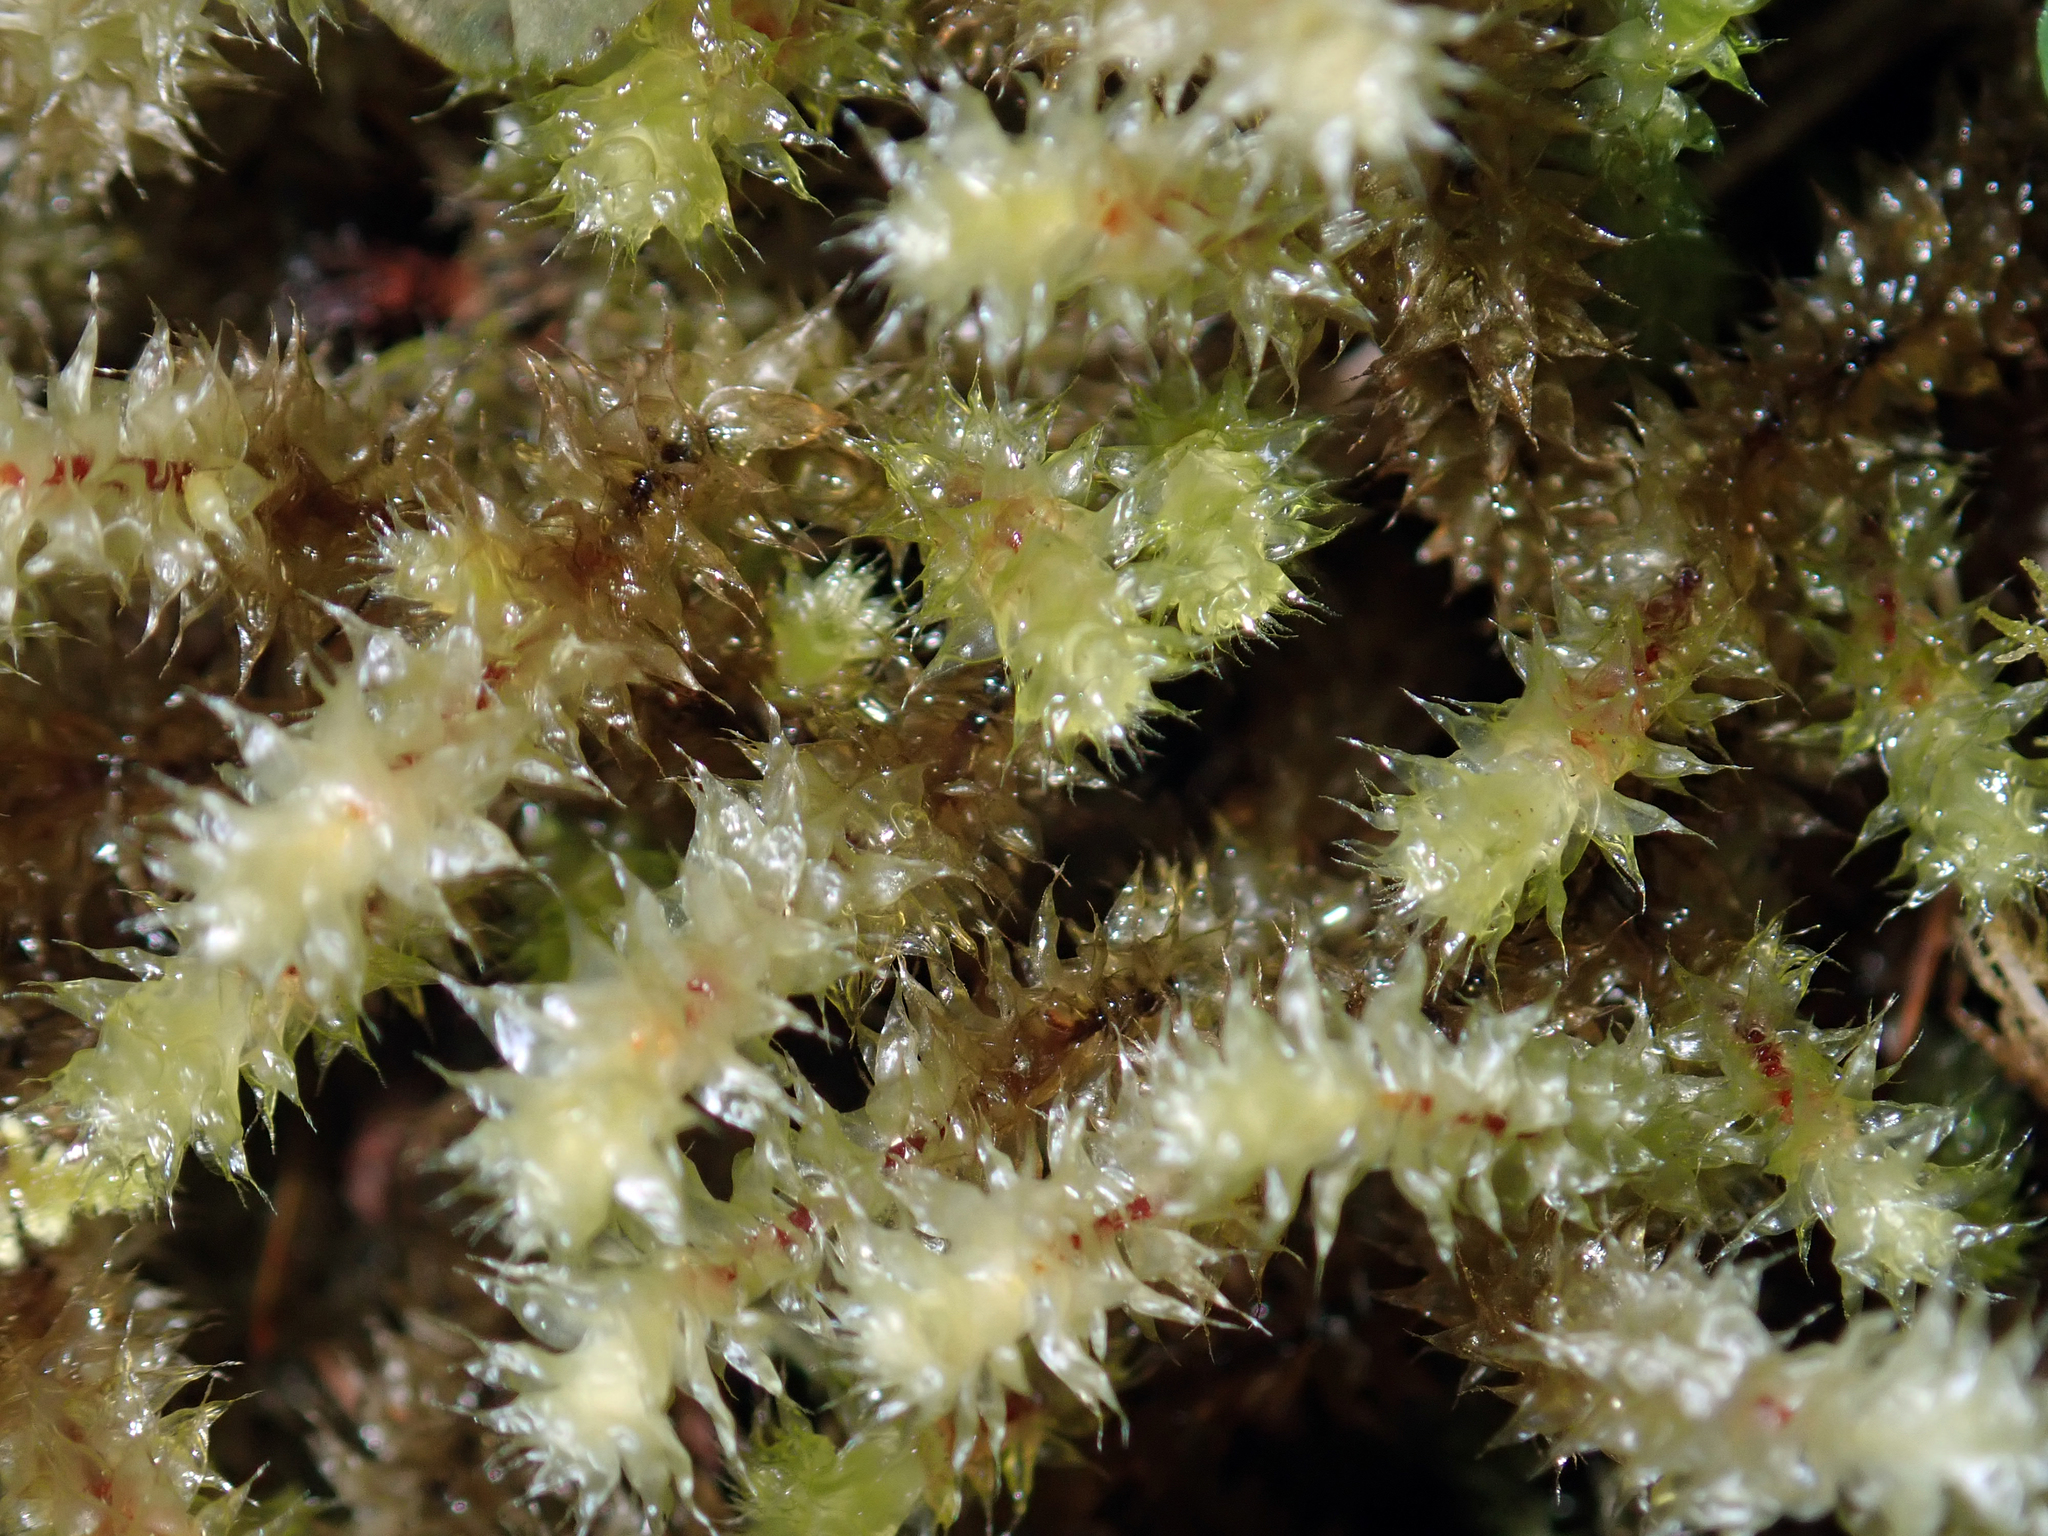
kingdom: Plantae
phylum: Bryophyta
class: Bryopsida
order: Ptychomniales
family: Ptychomniaceae
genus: Ptychomnion
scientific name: Ptychomnion aciculare
